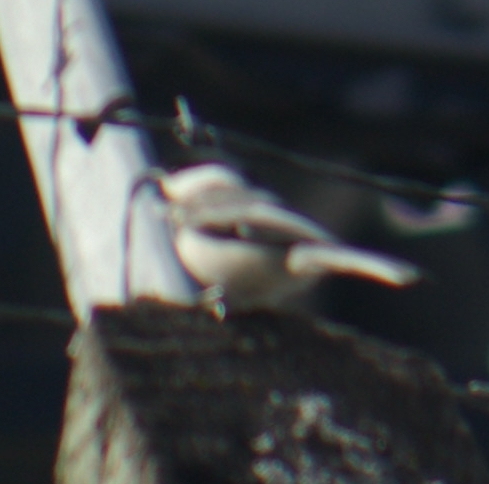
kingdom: Animalia
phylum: Chordata
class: Aves
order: Passeriformes
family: Paridae
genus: Poecile
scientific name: Poecile atricapillus
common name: Black-capped chickadee
